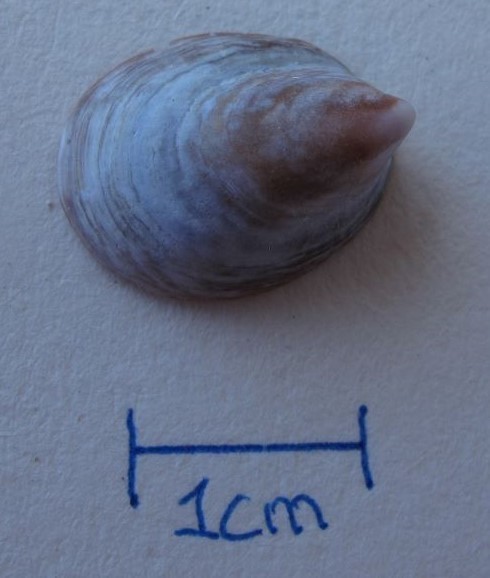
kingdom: Animalia
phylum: Mollusca
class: Gastropoda
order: Littorinimorpha
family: Calyptraeidae
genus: Crepidula
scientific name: Crepidula adunca
